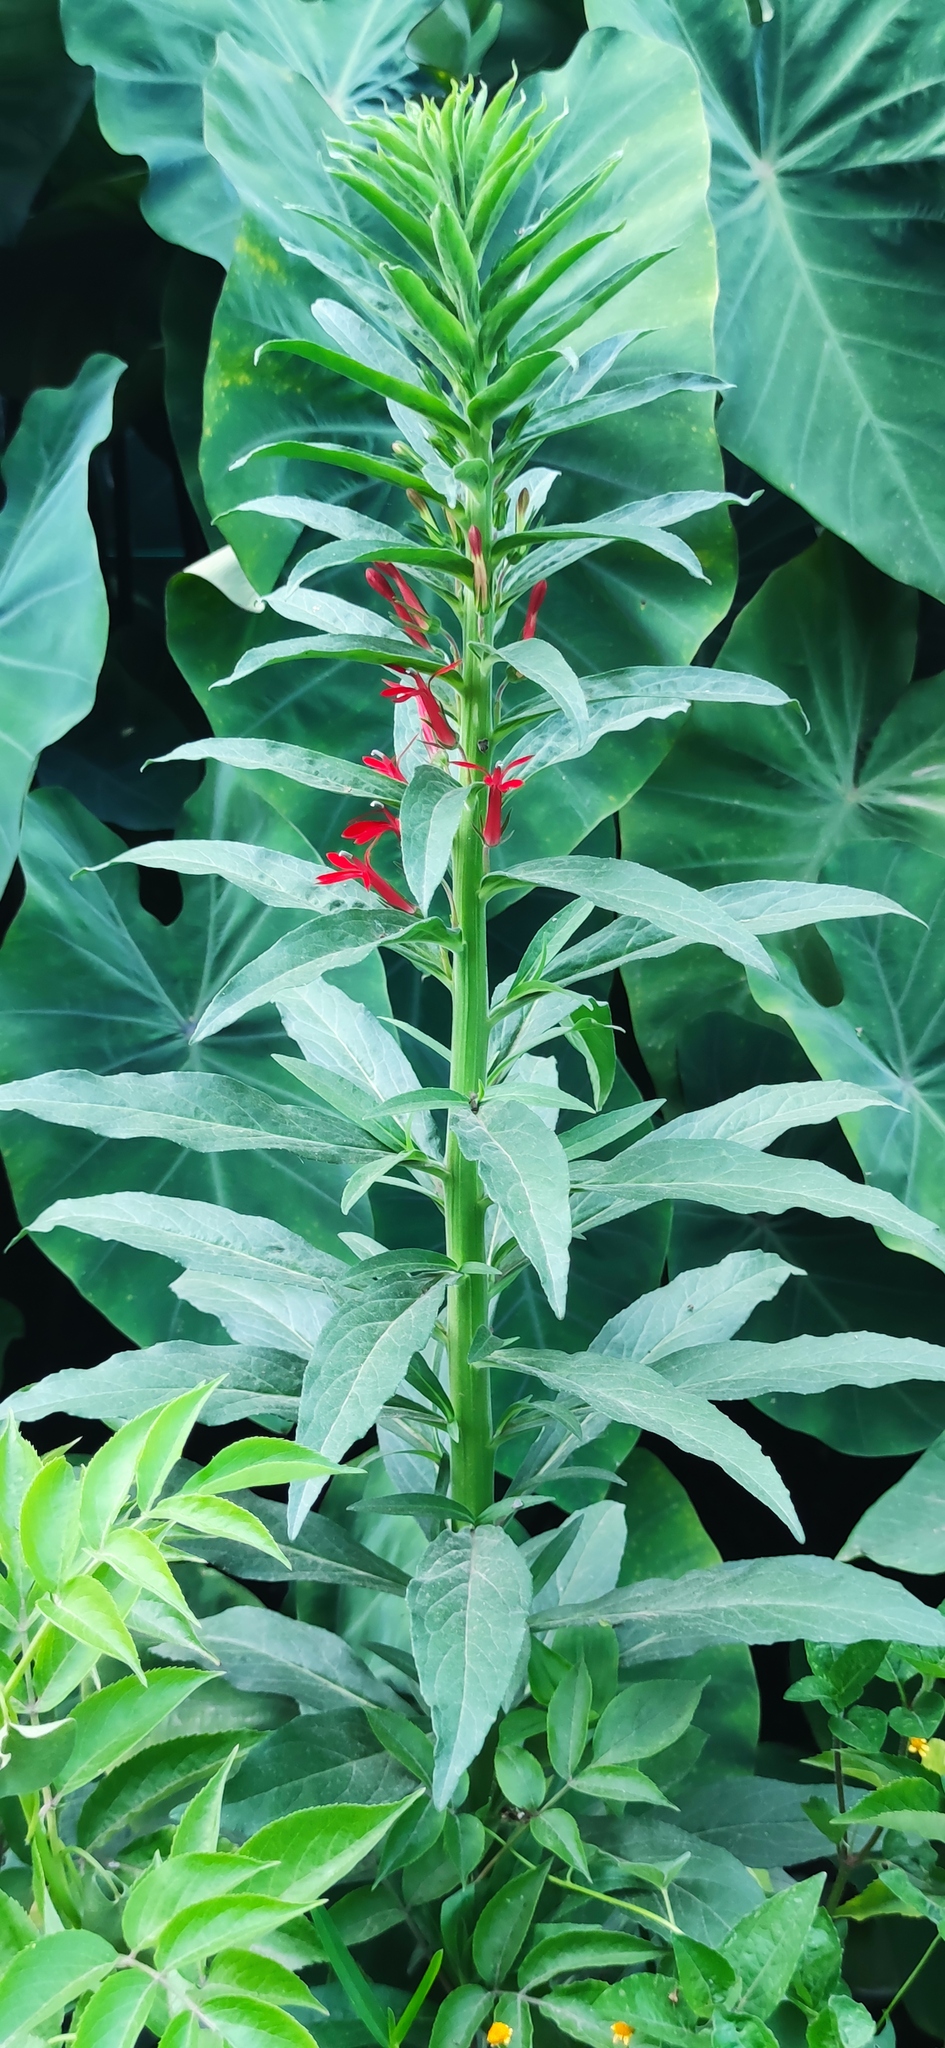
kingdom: Plantae
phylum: Tracheophyta
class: Magnoliopsida
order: Asterales
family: Campanulaceae
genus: Lobelia
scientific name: Lobelia cardinalis
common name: Cardinal flower
